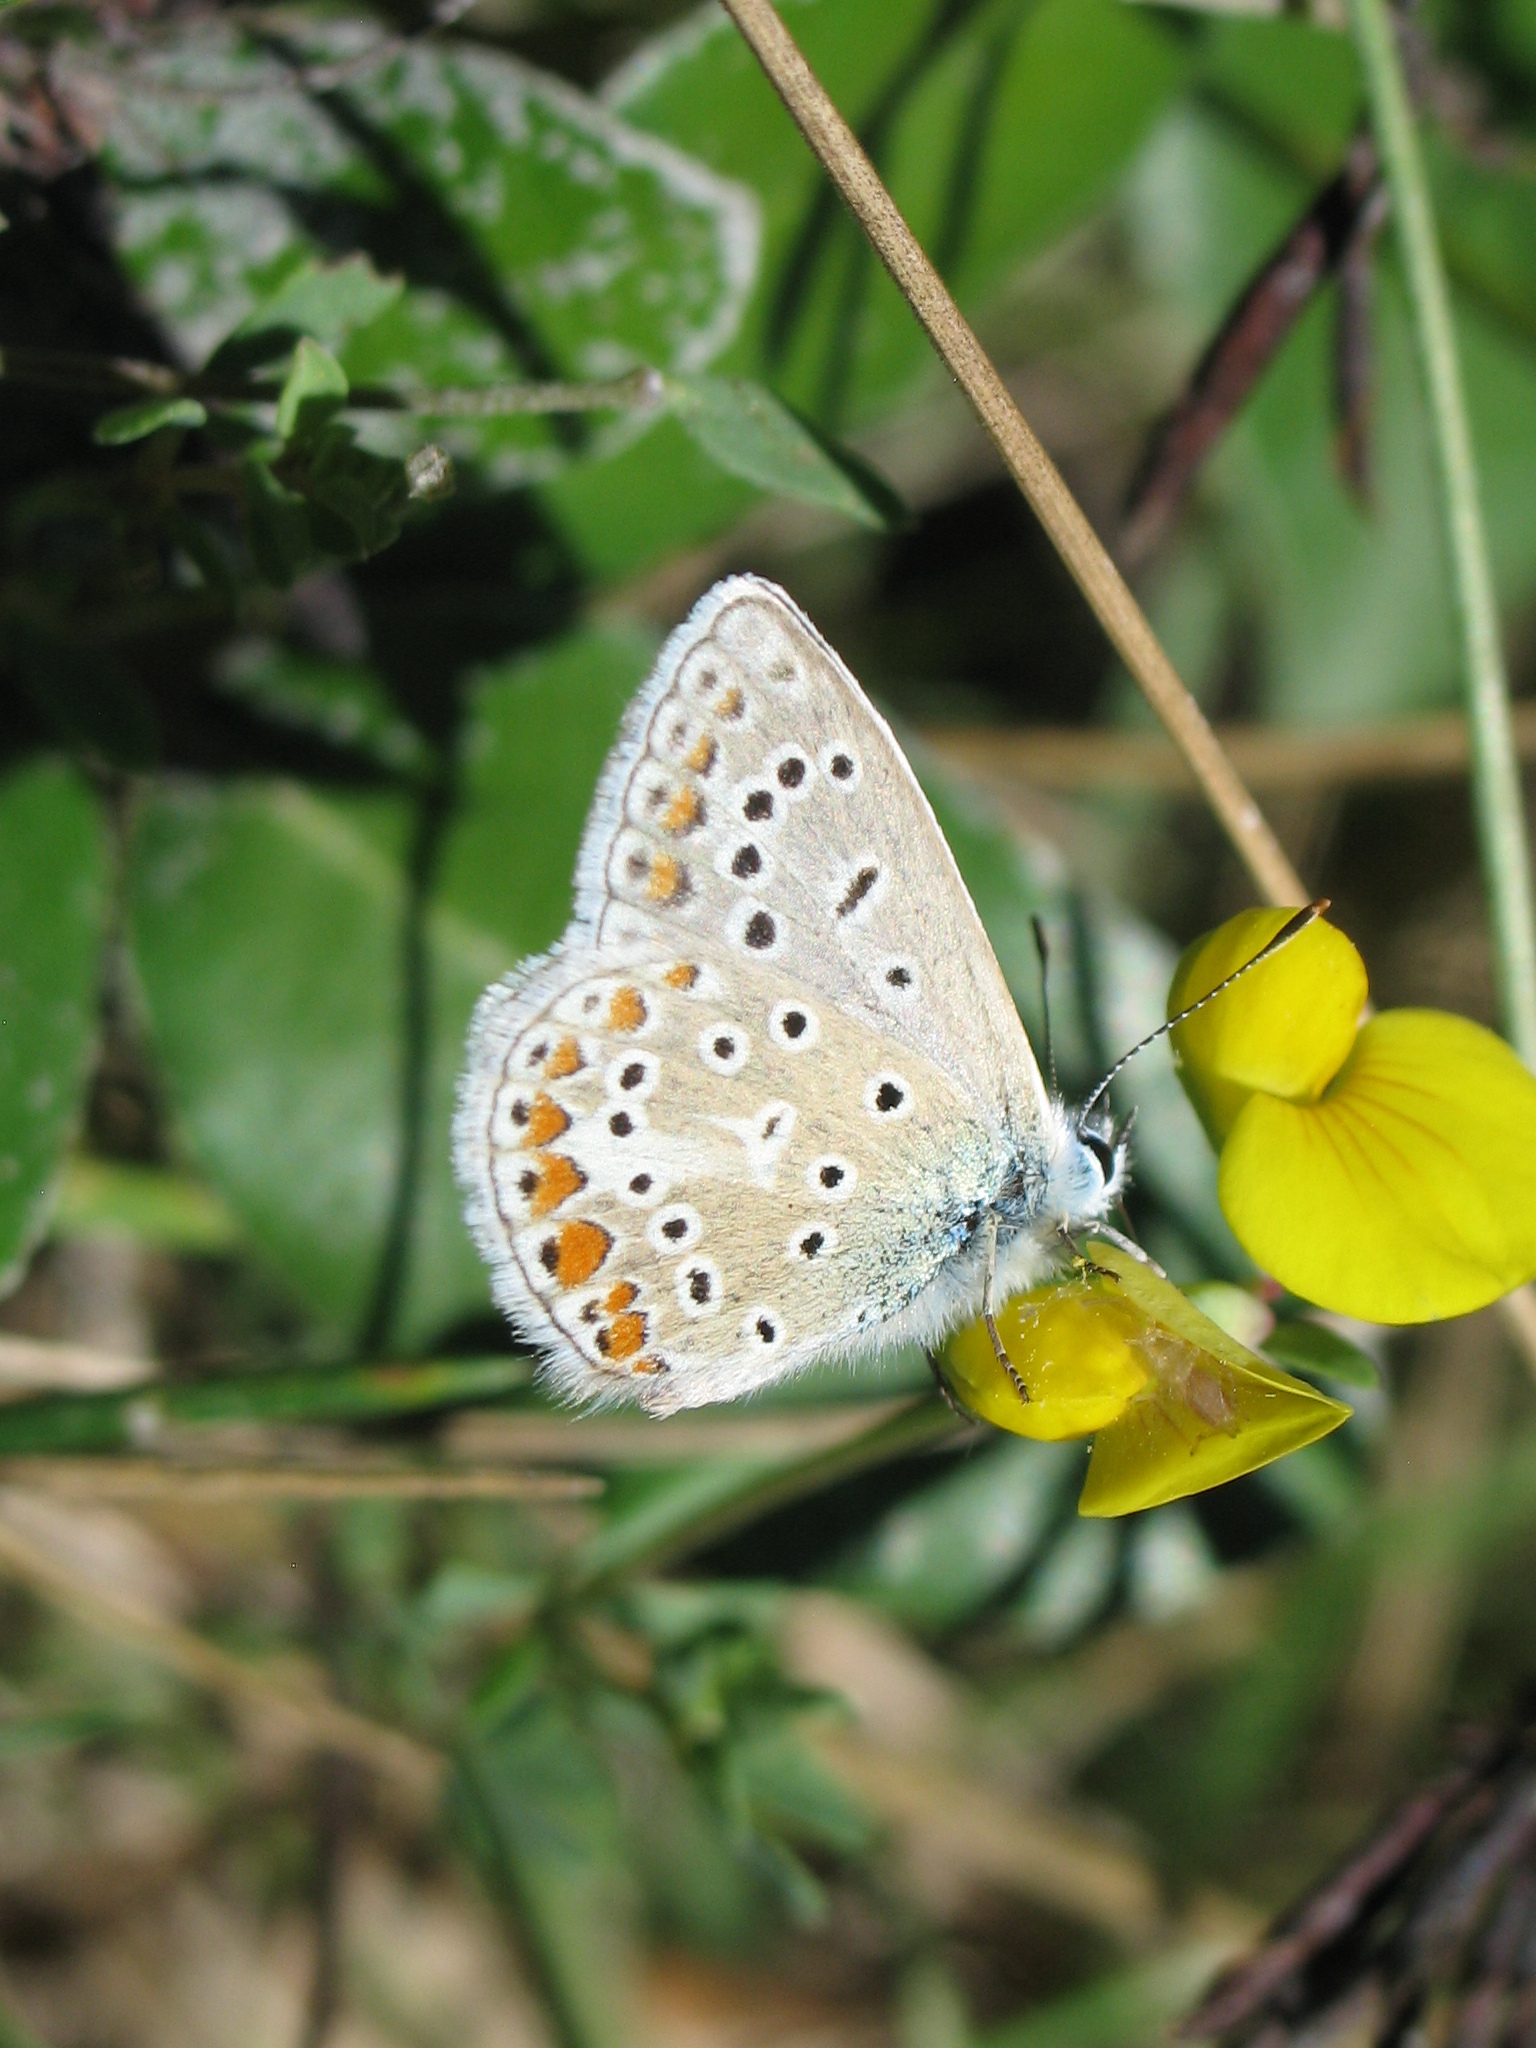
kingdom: Animalia
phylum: Arthropoda
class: Insecta
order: Lepidoptera
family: Lycaenidae
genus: Polyommatus
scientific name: Polyommatus icarus
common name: Common blue
